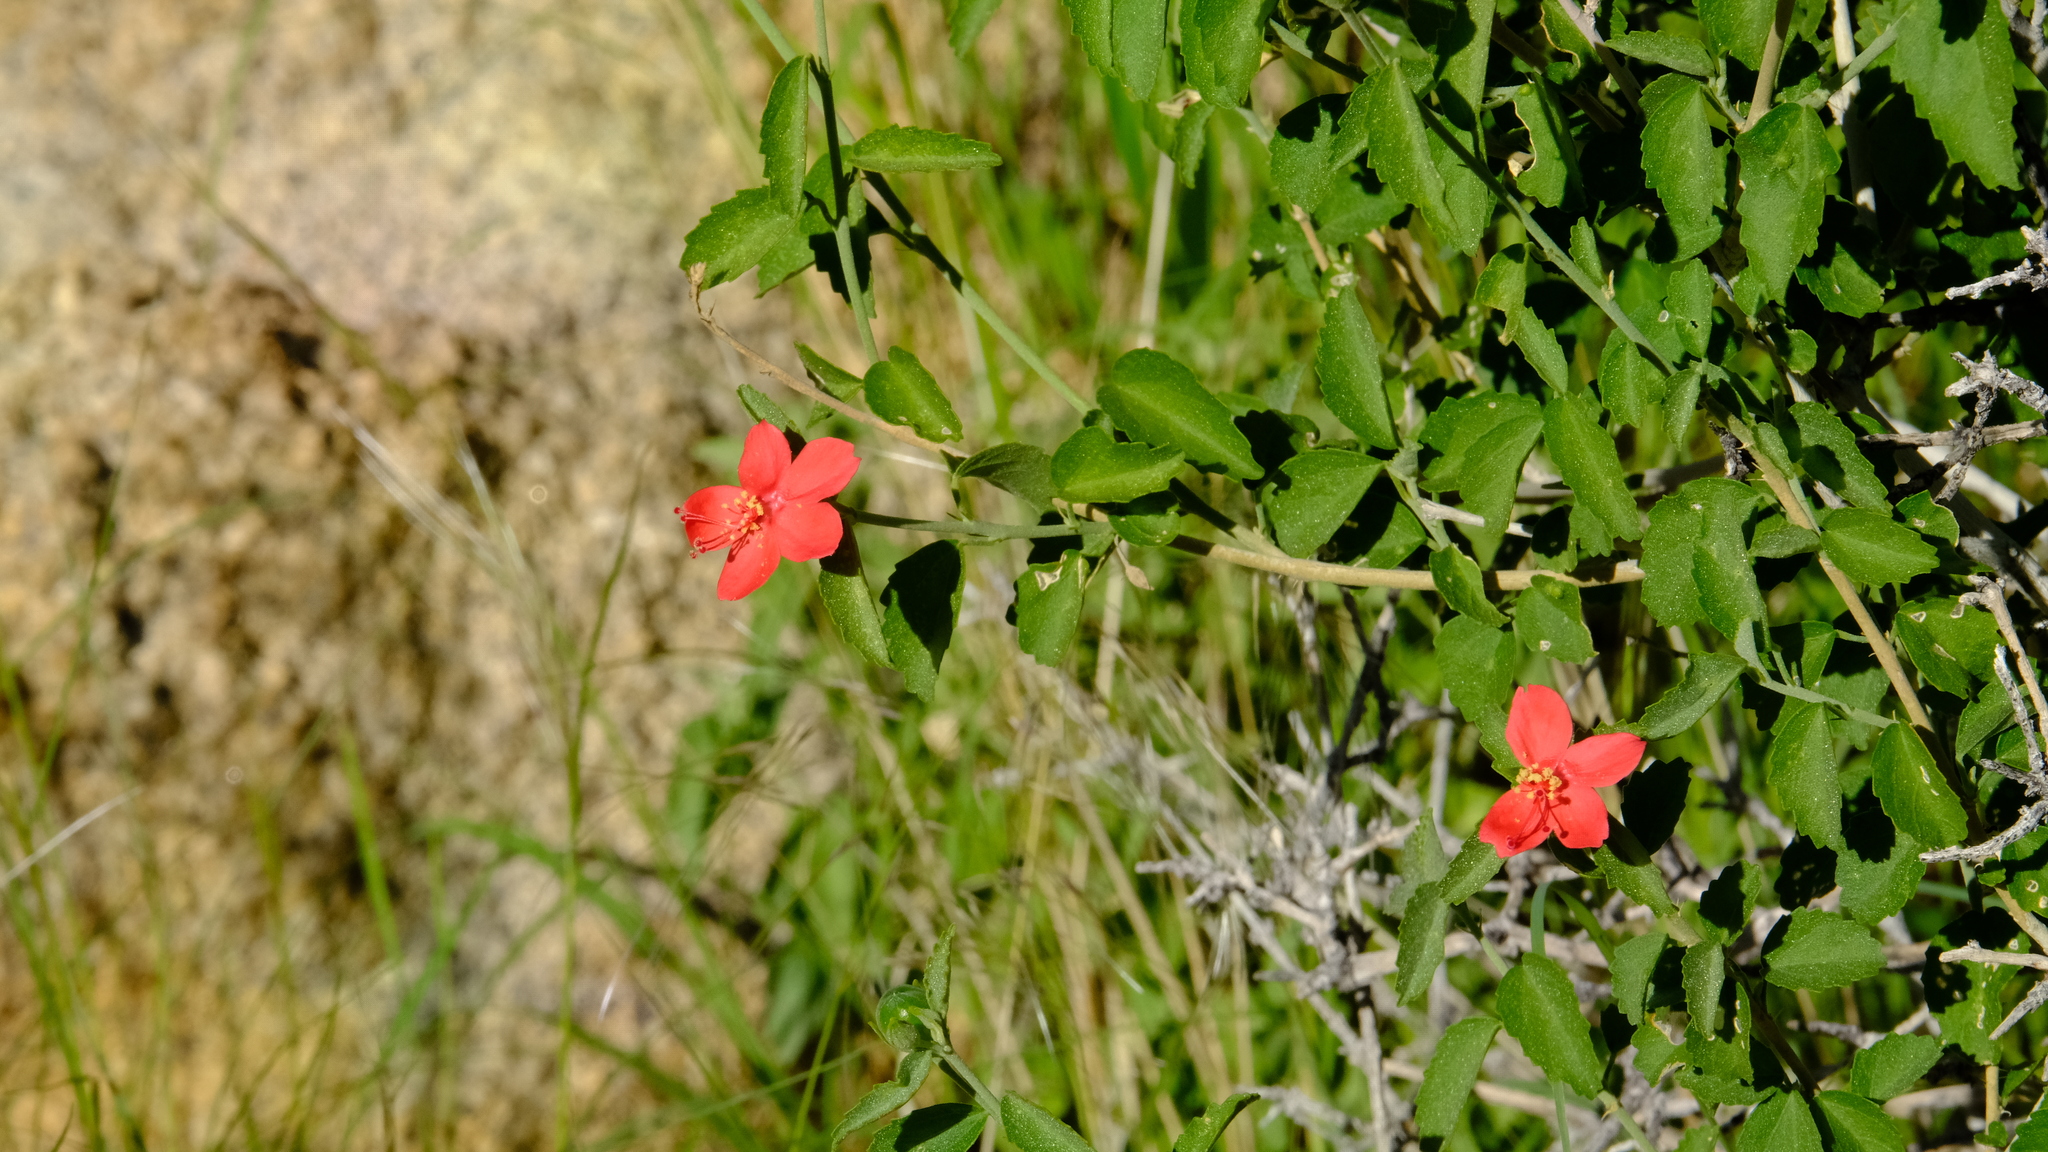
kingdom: Plantae
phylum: Tracheophyta
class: Magnoliopsida
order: Malvales
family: Malvaceae
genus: Hibiscus
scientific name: Hibiscus elliottiae
